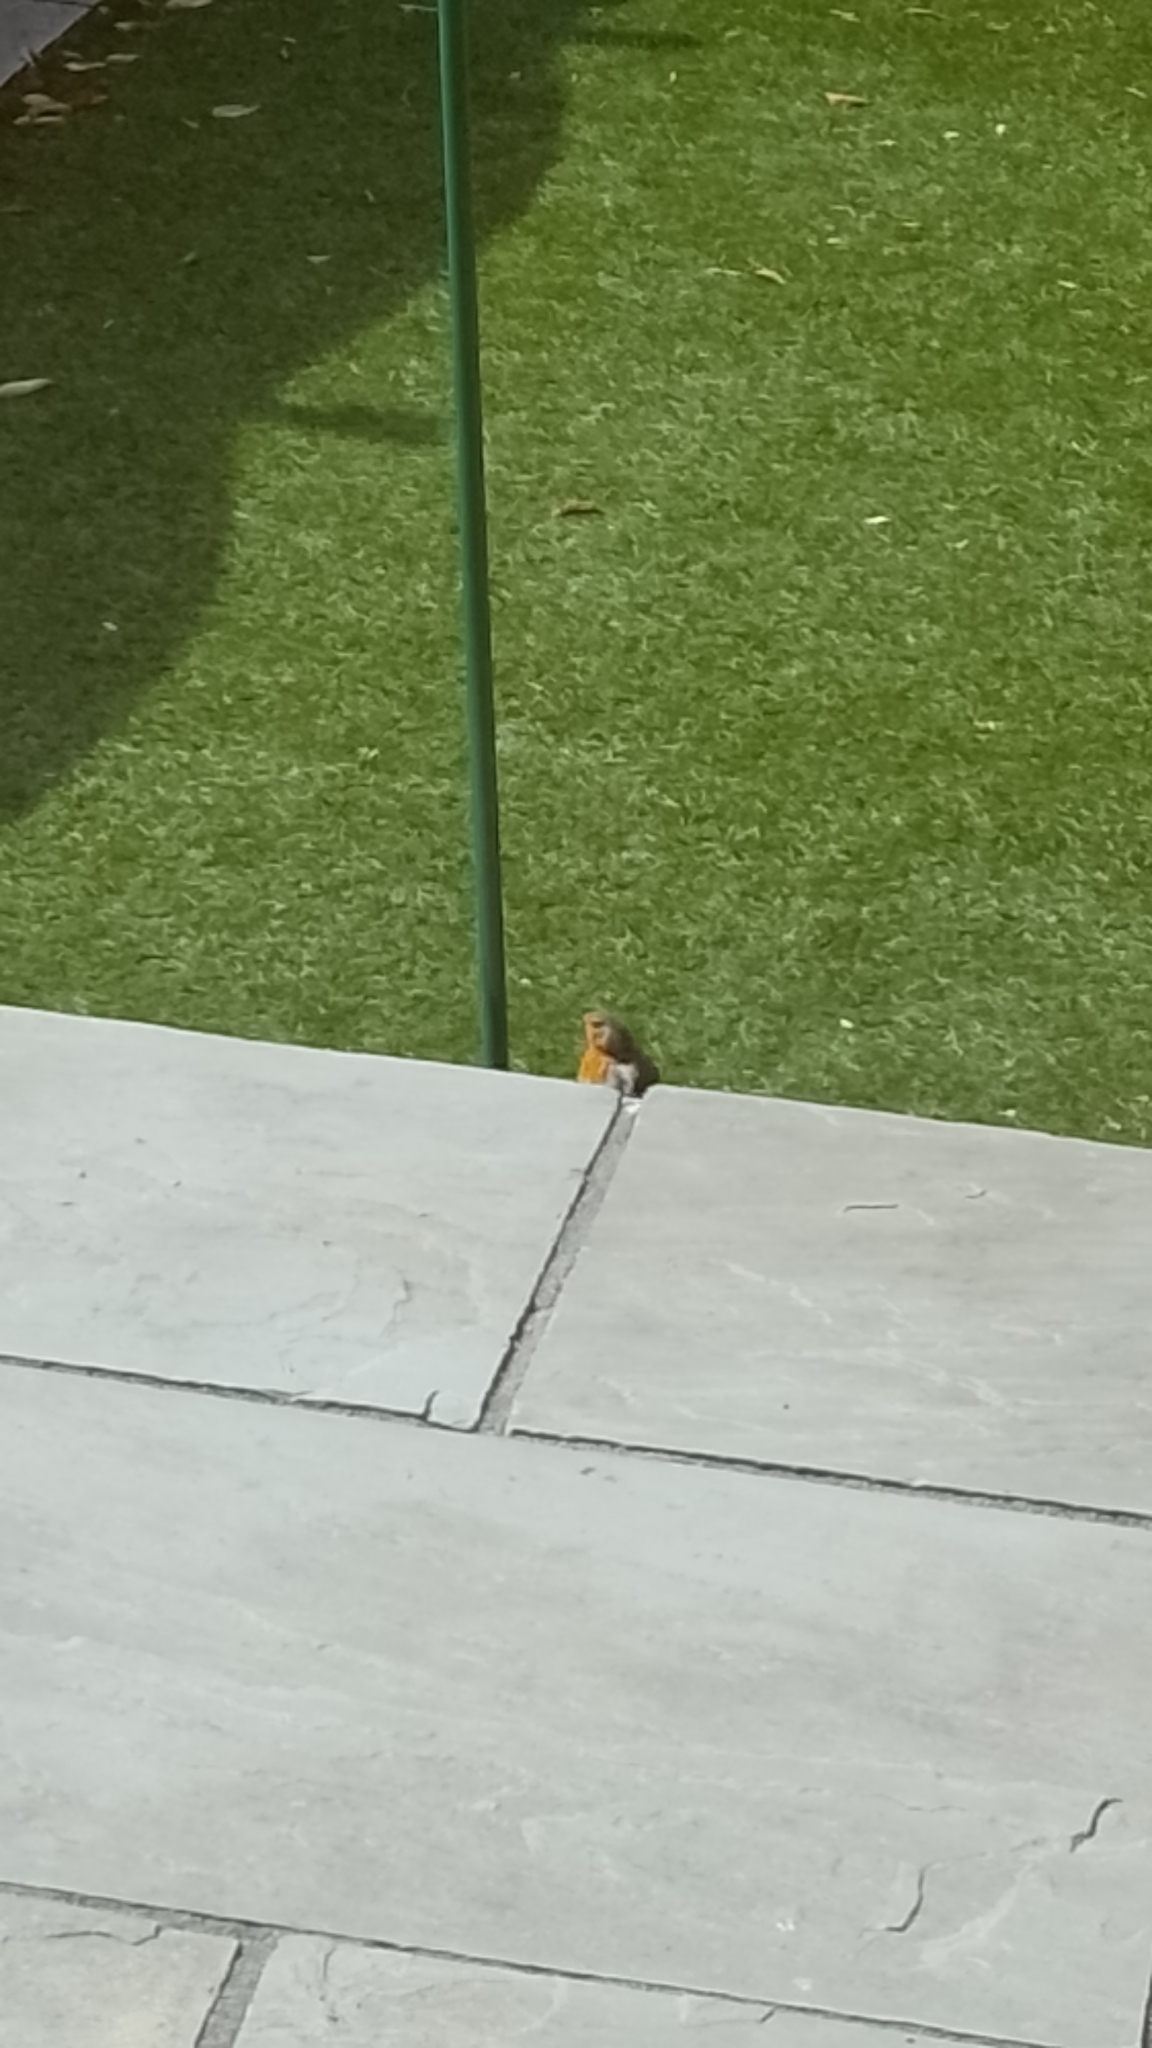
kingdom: Animalia
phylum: Chordata
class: Aves
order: Passeriformes
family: Muscicapidae
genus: Erithacus
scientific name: Erithacus rubecula
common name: European robin
